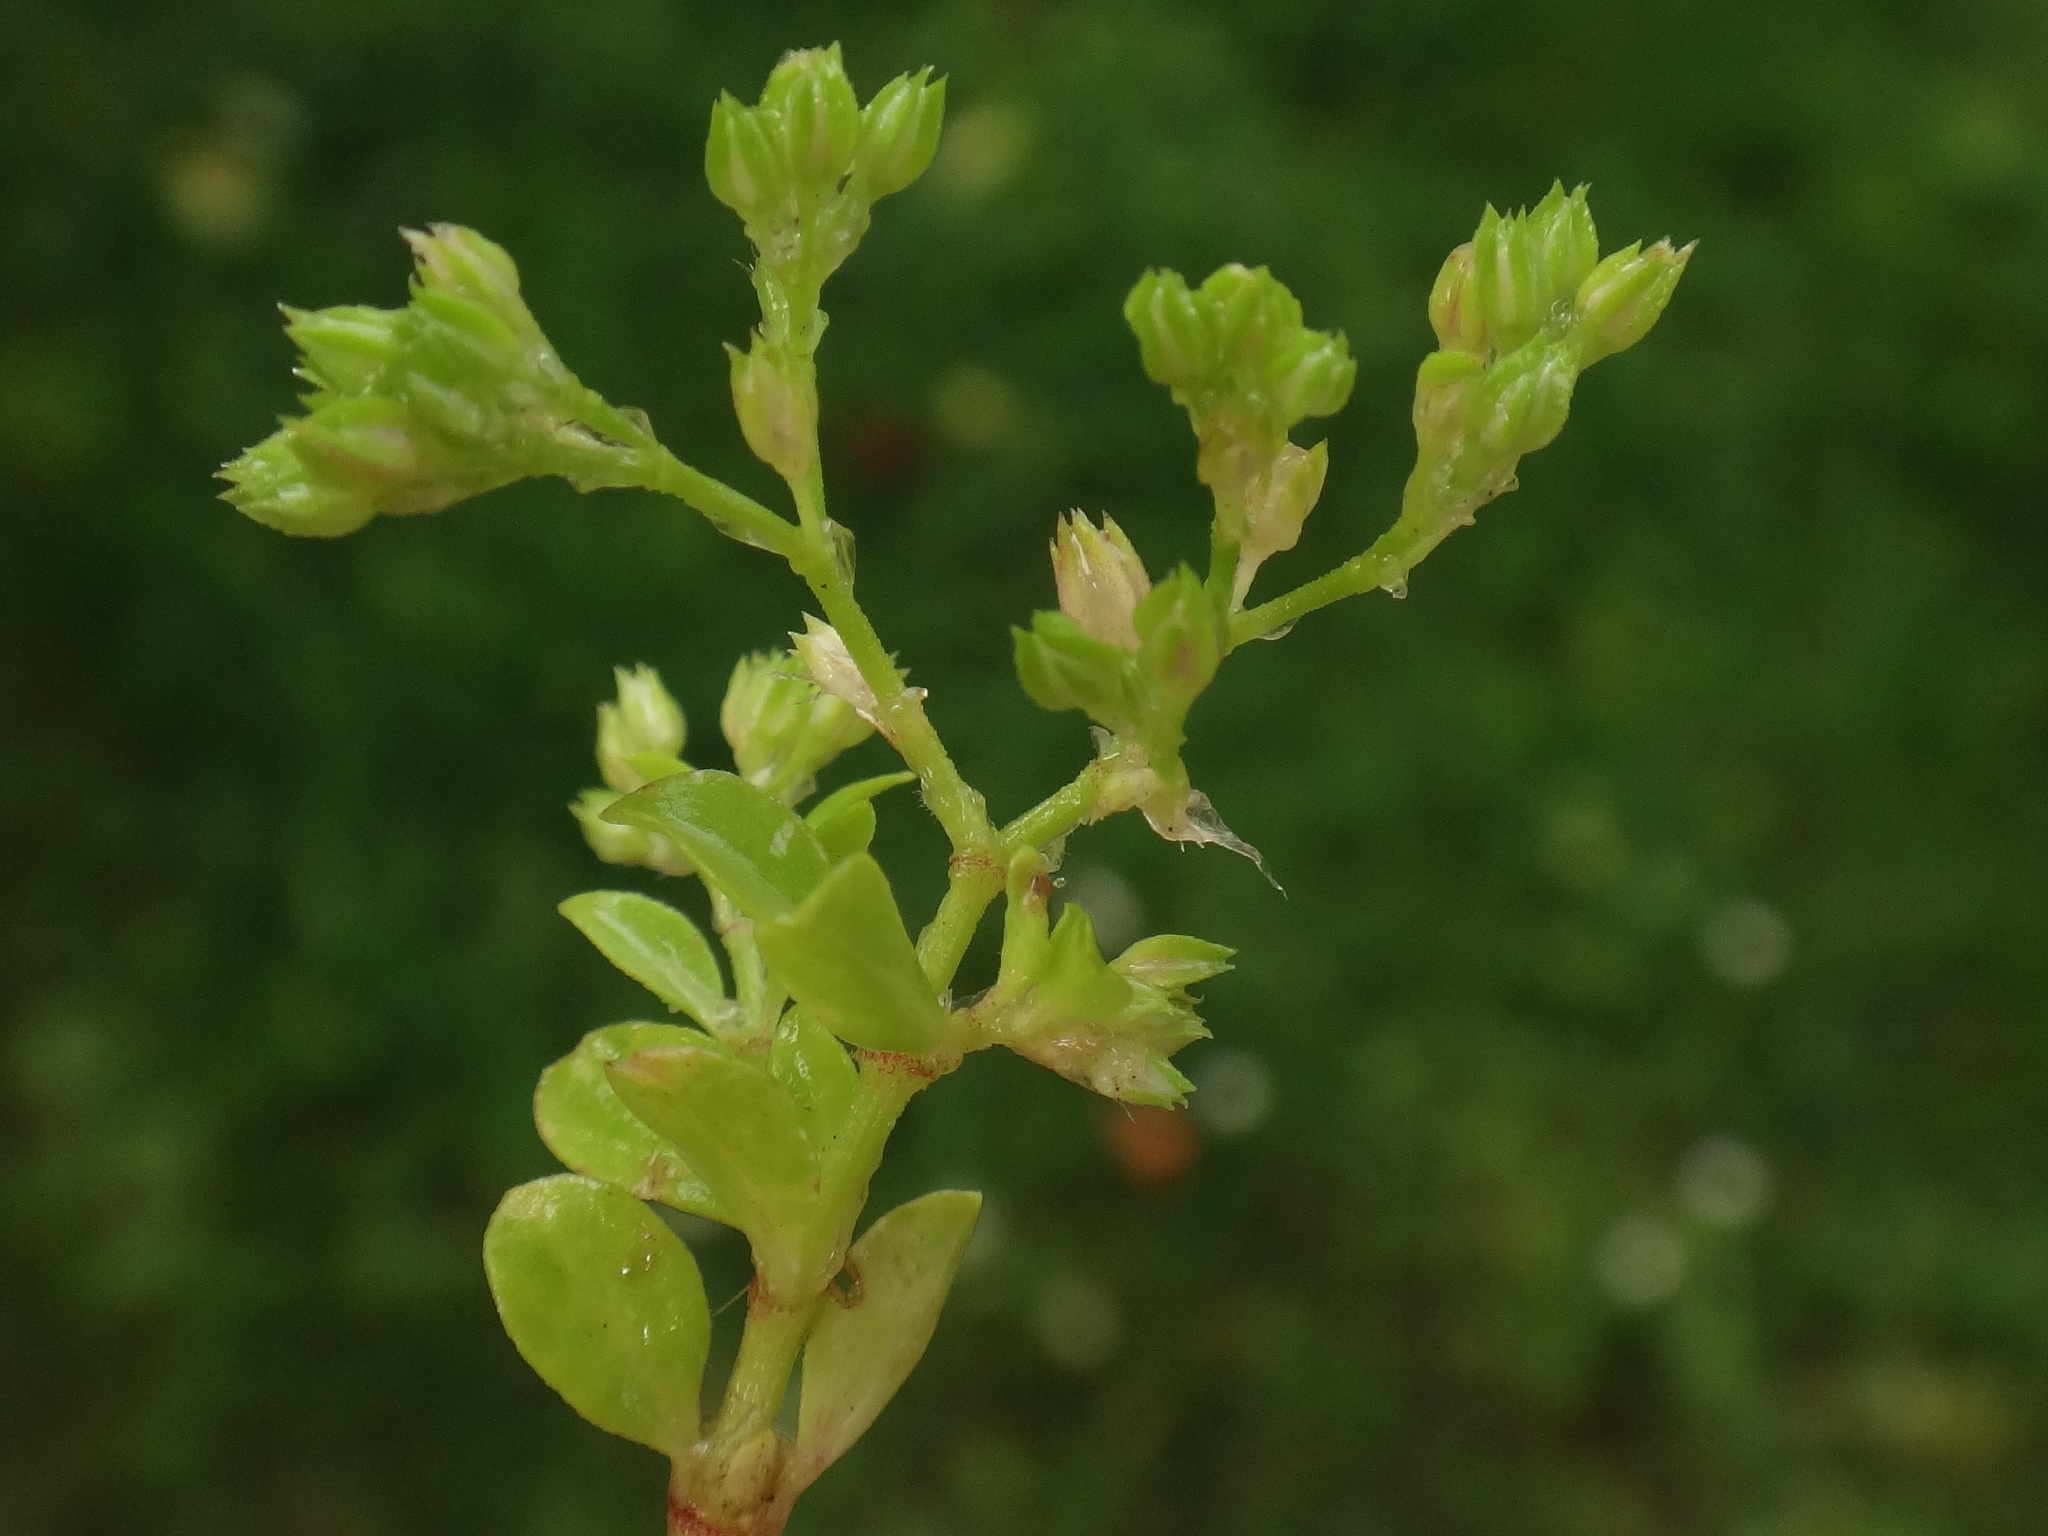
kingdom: Plantae
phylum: Tracheophyta
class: Magnoliopsida
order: Caryophyllales
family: Caryophyllaceae
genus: Polycarpon
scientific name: Polycarpon tetraphyllum
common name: Four-leaved all-seed
